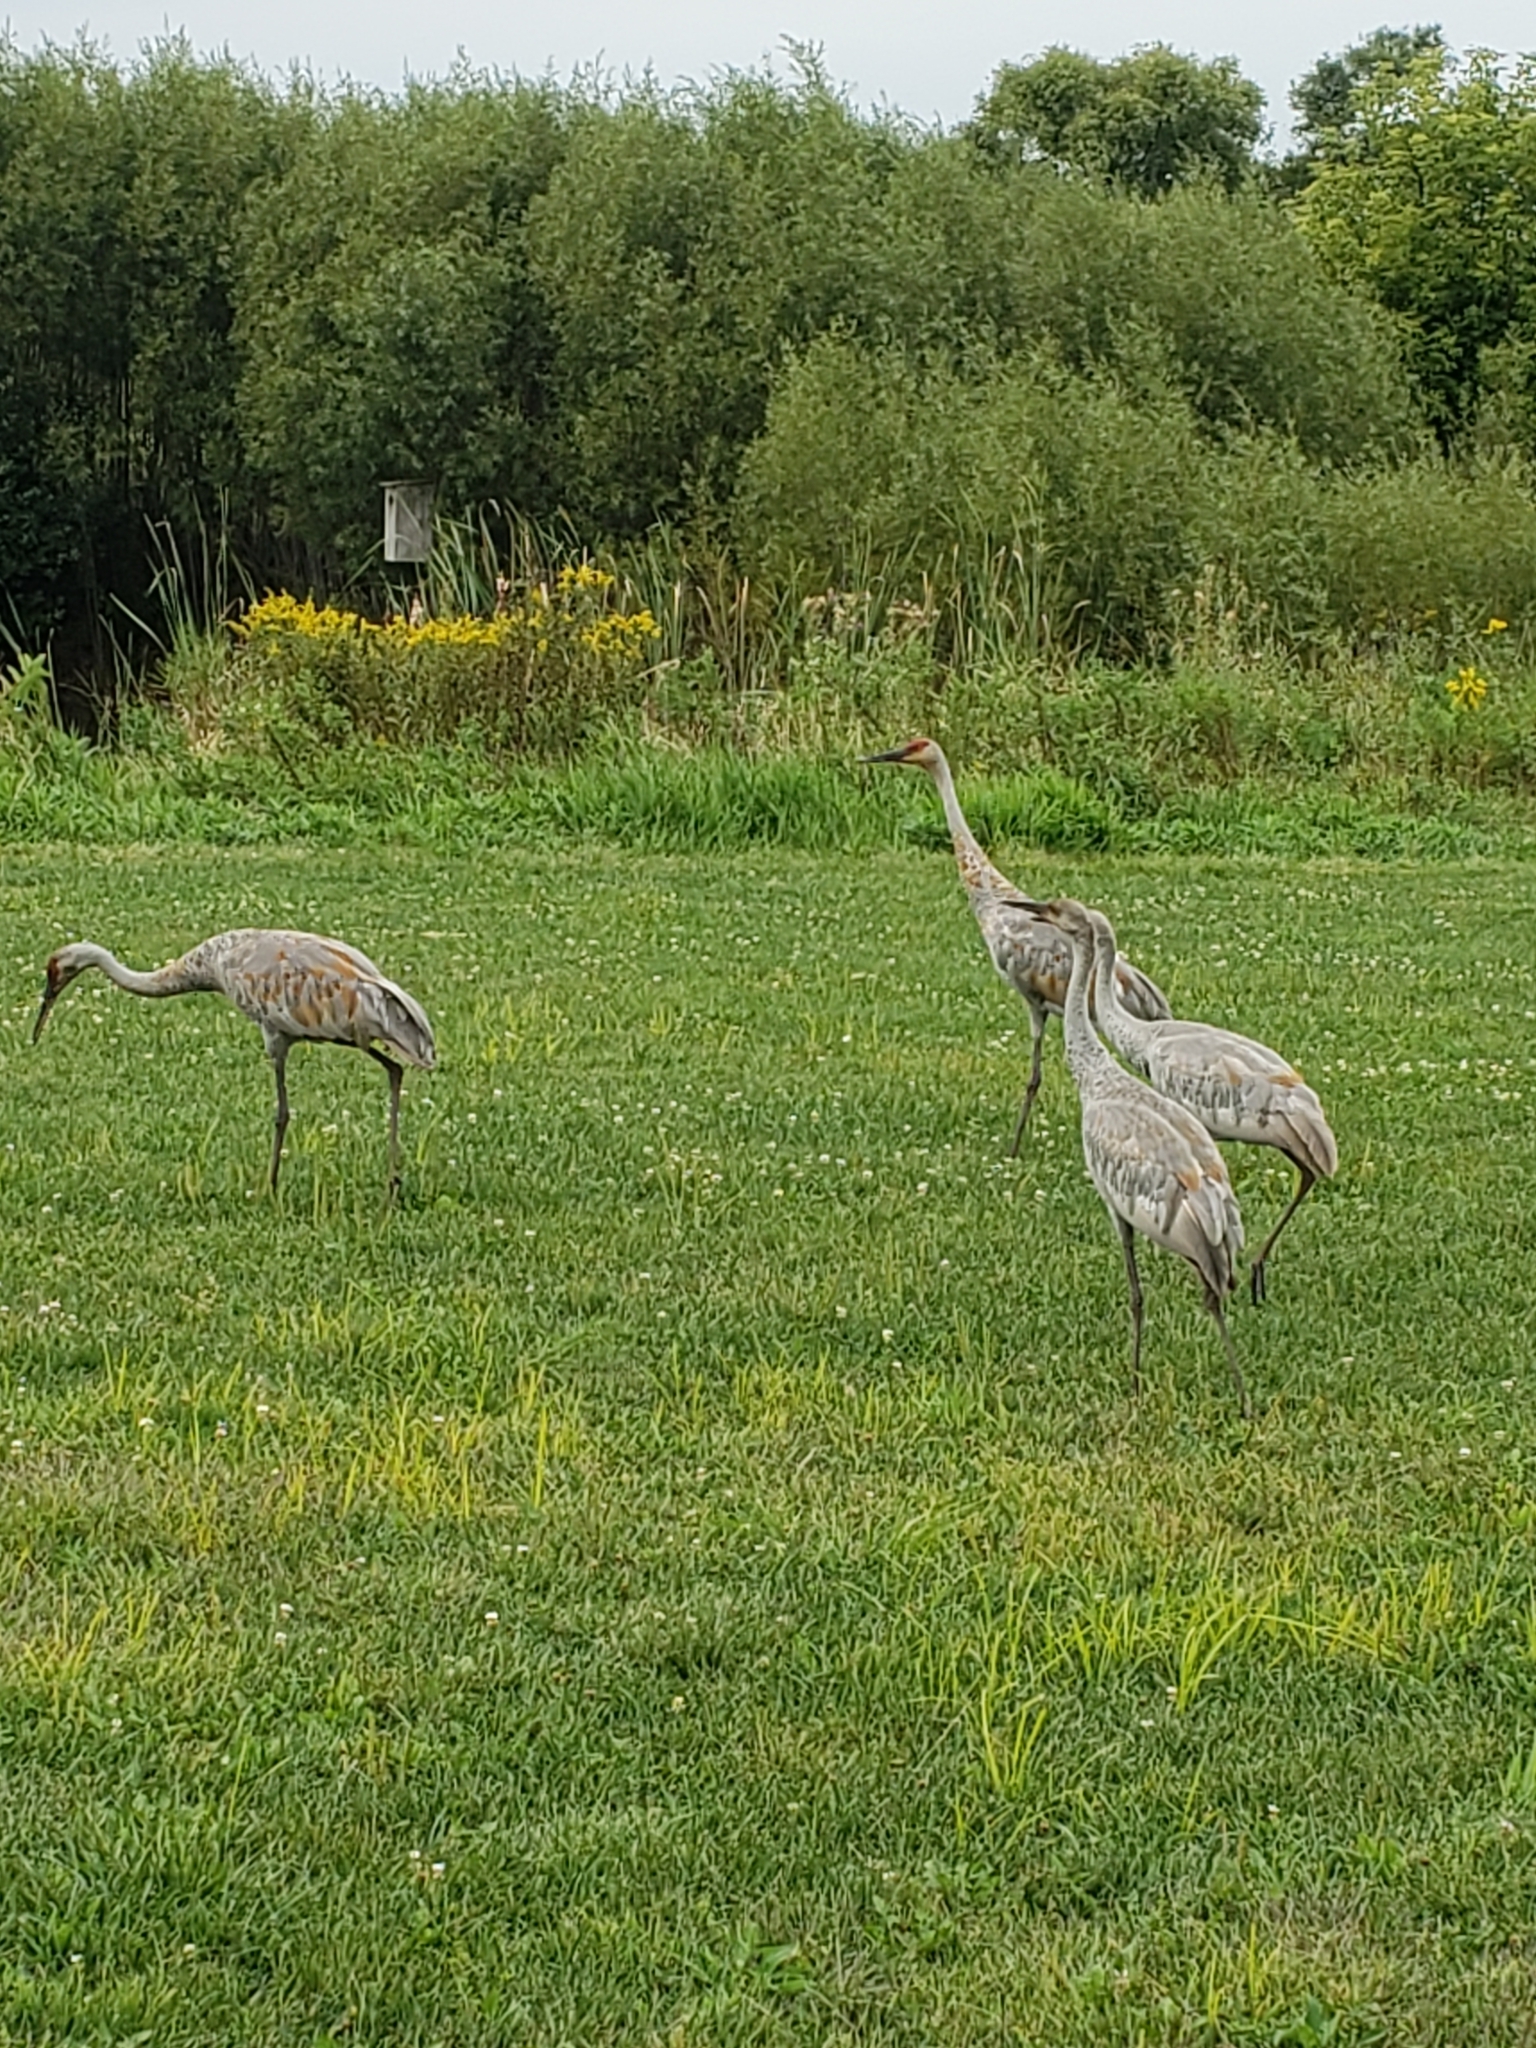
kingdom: Animalia
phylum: Chordata
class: Aves
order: Gruiformes
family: Gruidae
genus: Grus
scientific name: Grus canadensis
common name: Sandhill crane
